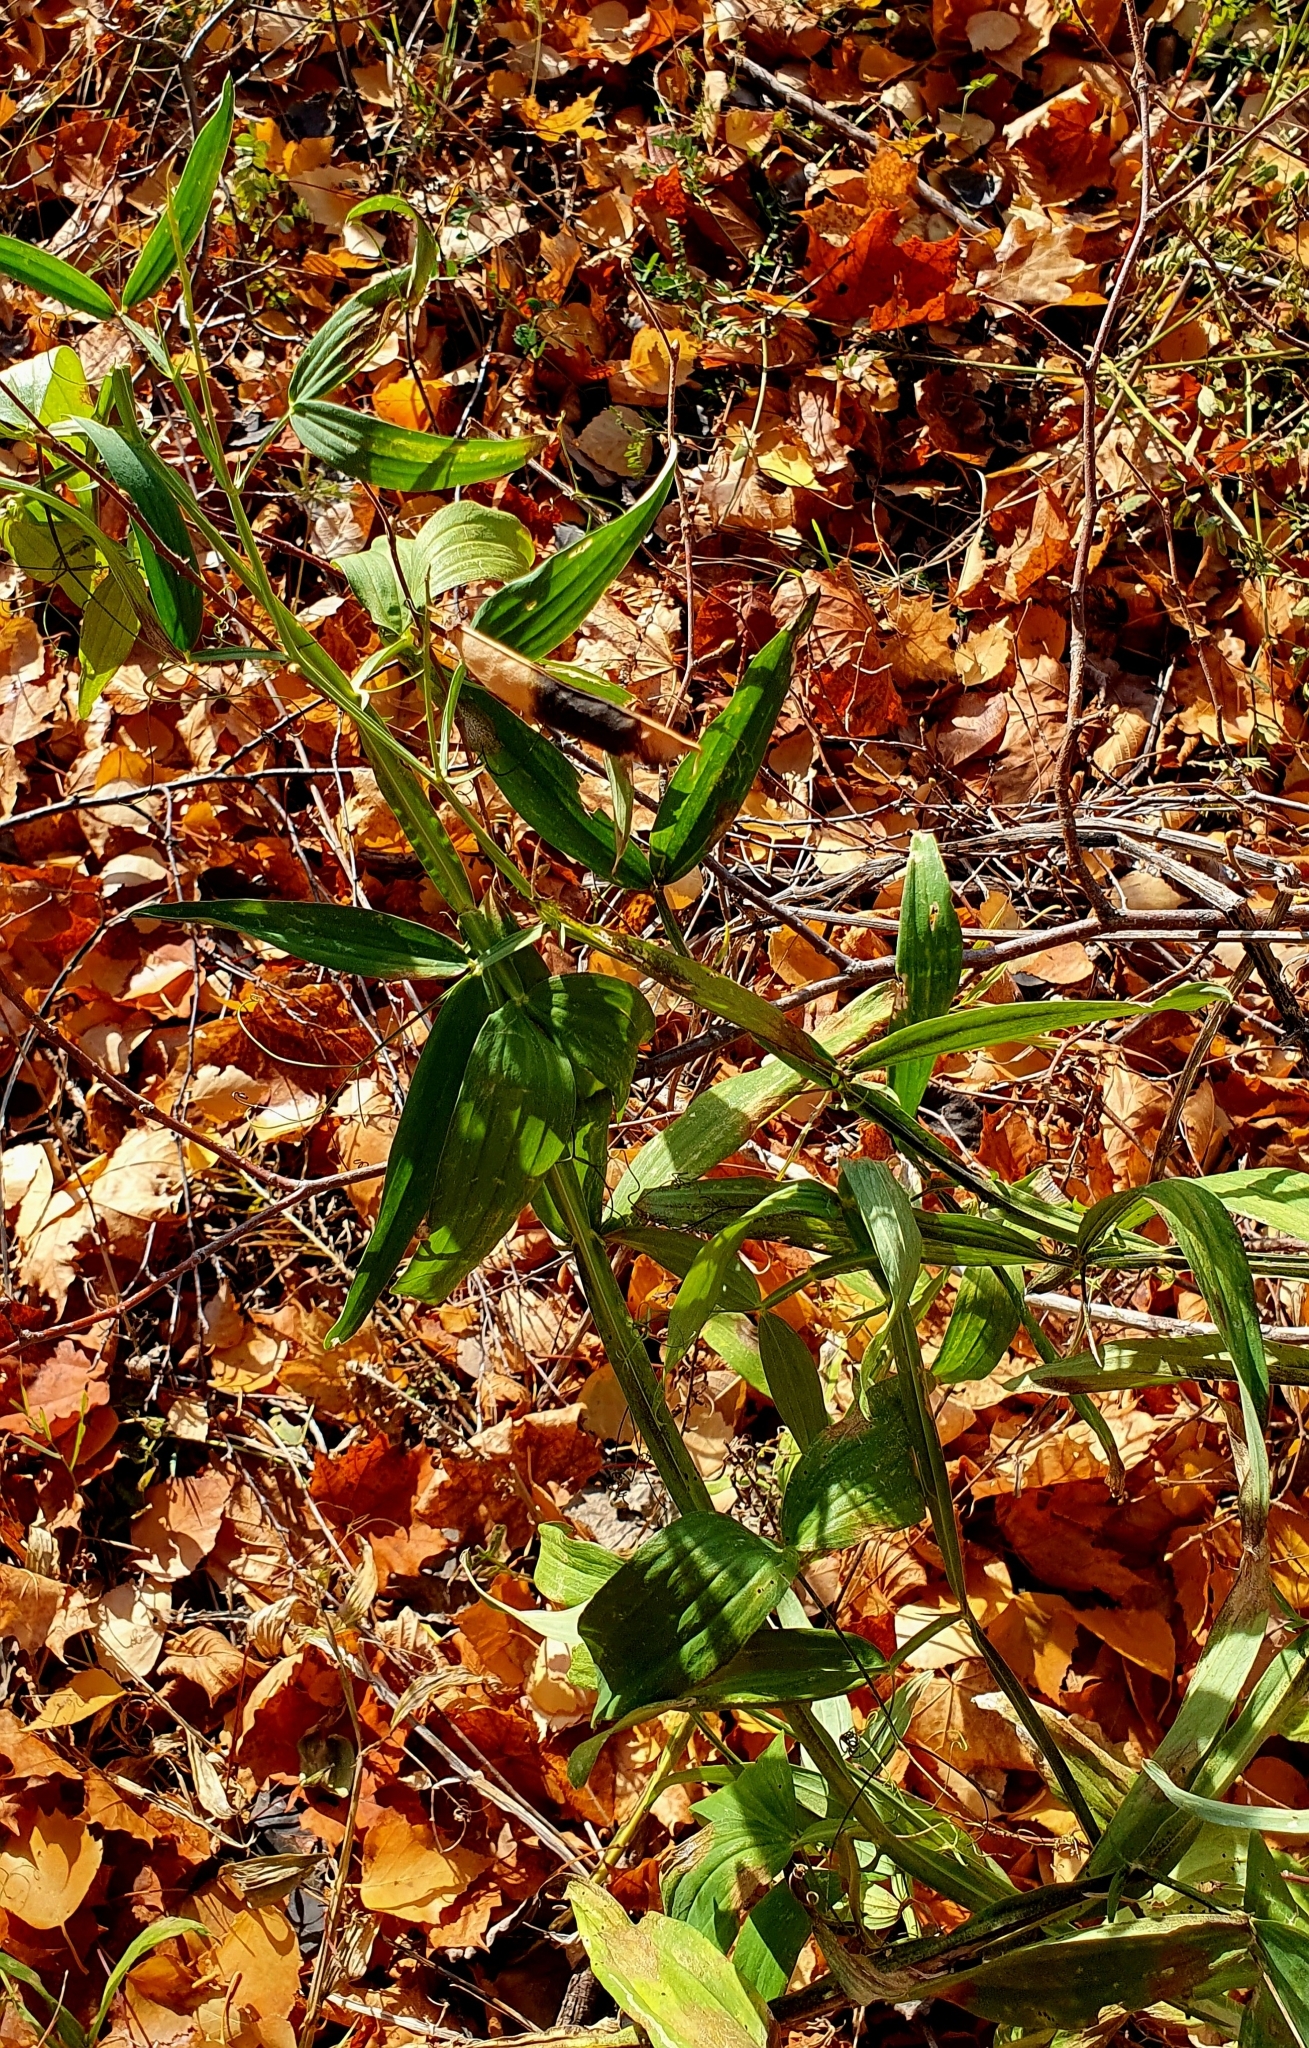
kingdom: Plantae
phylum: Tracheophyta
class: Magnoliopsida
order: Fabales
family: Fabaceae
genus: Lathyrus
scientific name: Lathyrus sylvestris
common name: Flat pea
